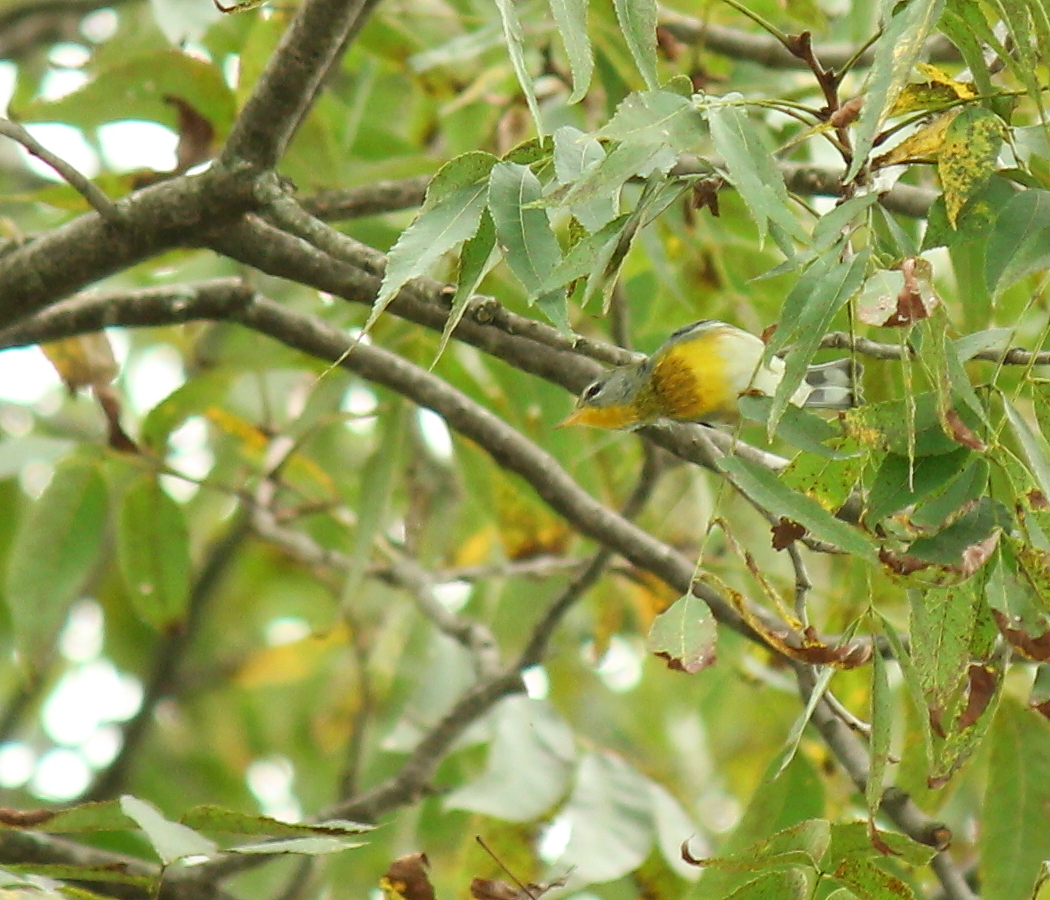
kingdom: Animalia
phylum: Chordata
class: Aves
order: Passeriformes
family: Parulidae
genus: Setophaga
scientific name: Setophaga americana
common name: Northern parula
